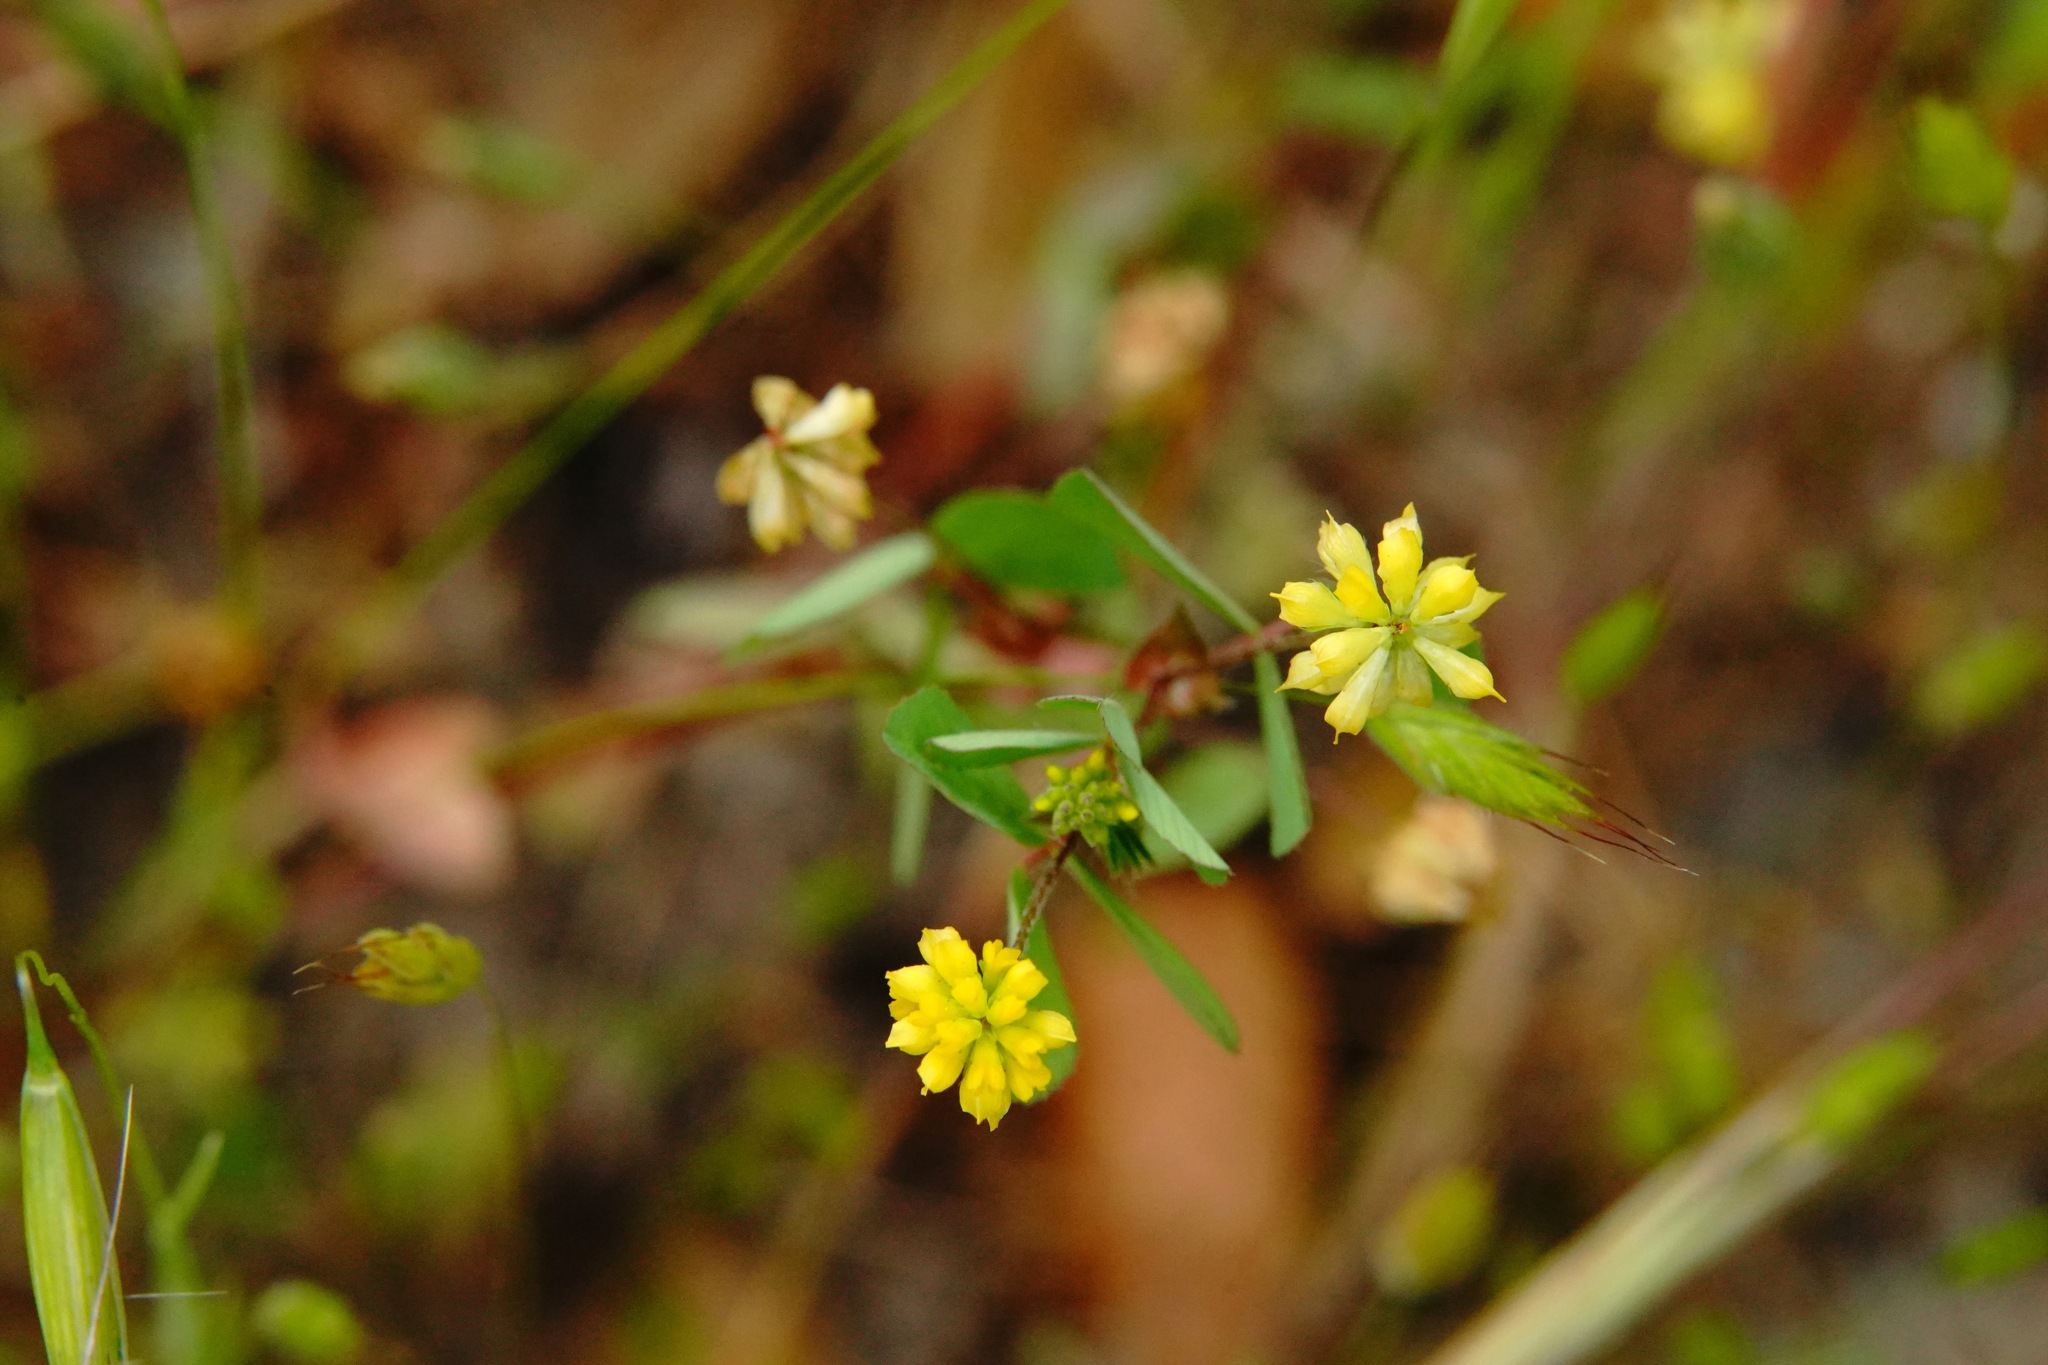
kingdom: Plantae
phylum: Tracheophyta
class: Magnoliopsida
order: Fabales
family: Fabaceae
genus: Trifolium
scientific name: Trifolium dubium
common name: Suckling clover
